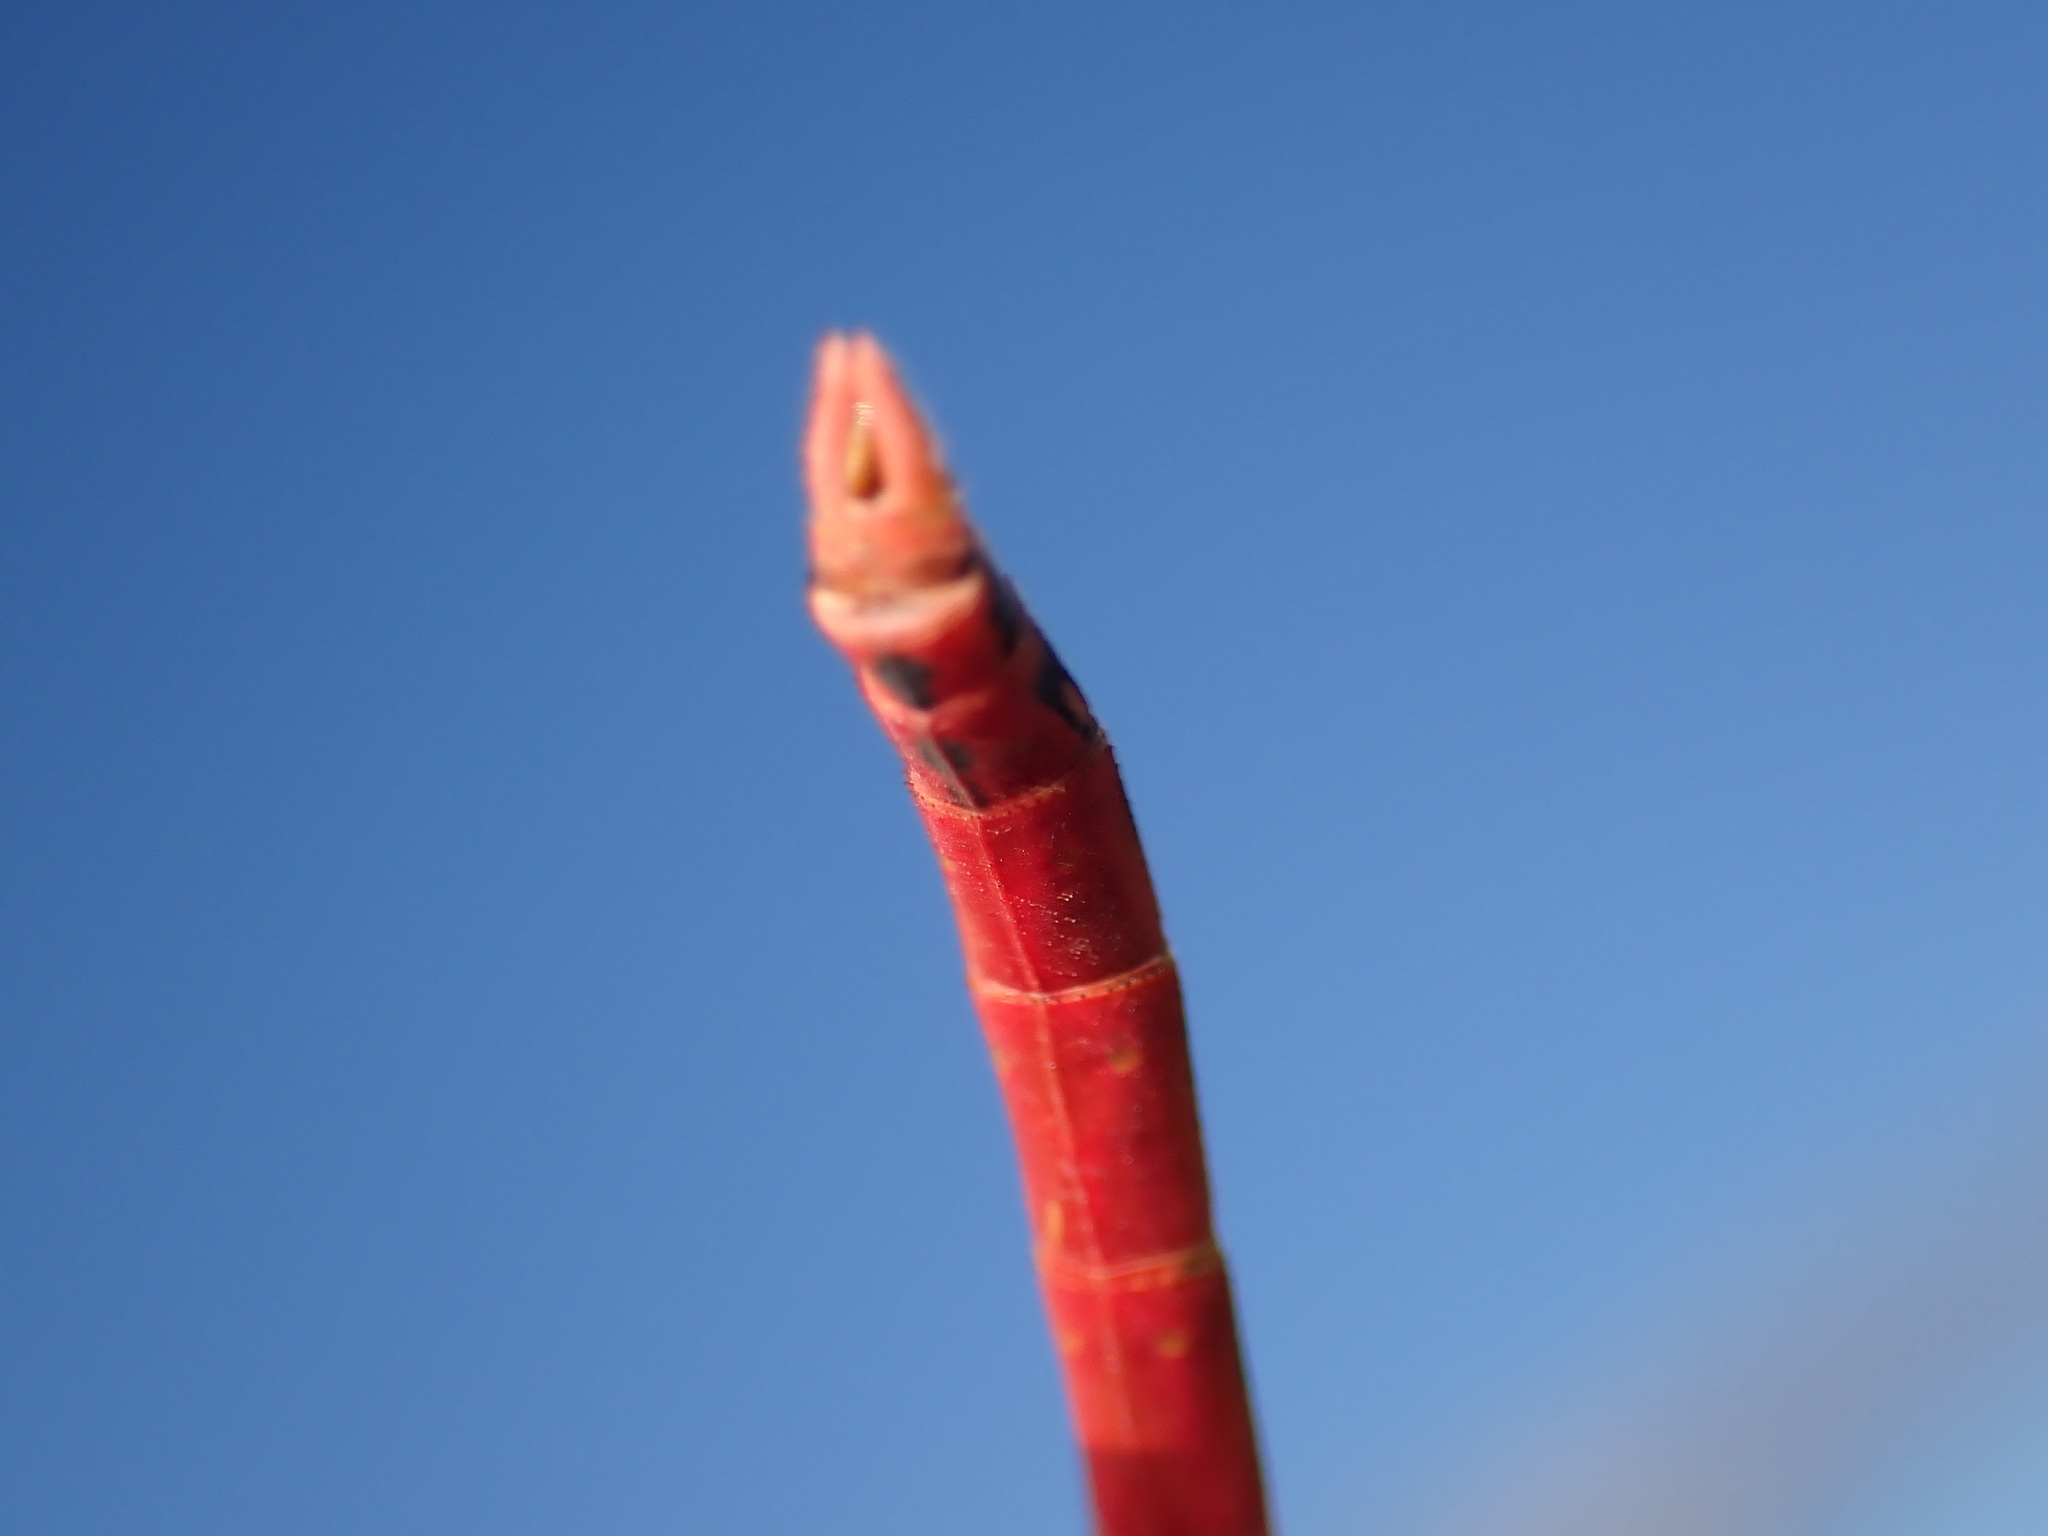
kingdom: Animalia
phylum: Arthropoda
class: Insecta
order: Odonata
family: Libellulidae
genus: Sympetrum
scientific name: Sympetrum fonscolombii
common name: Red-veined darter
